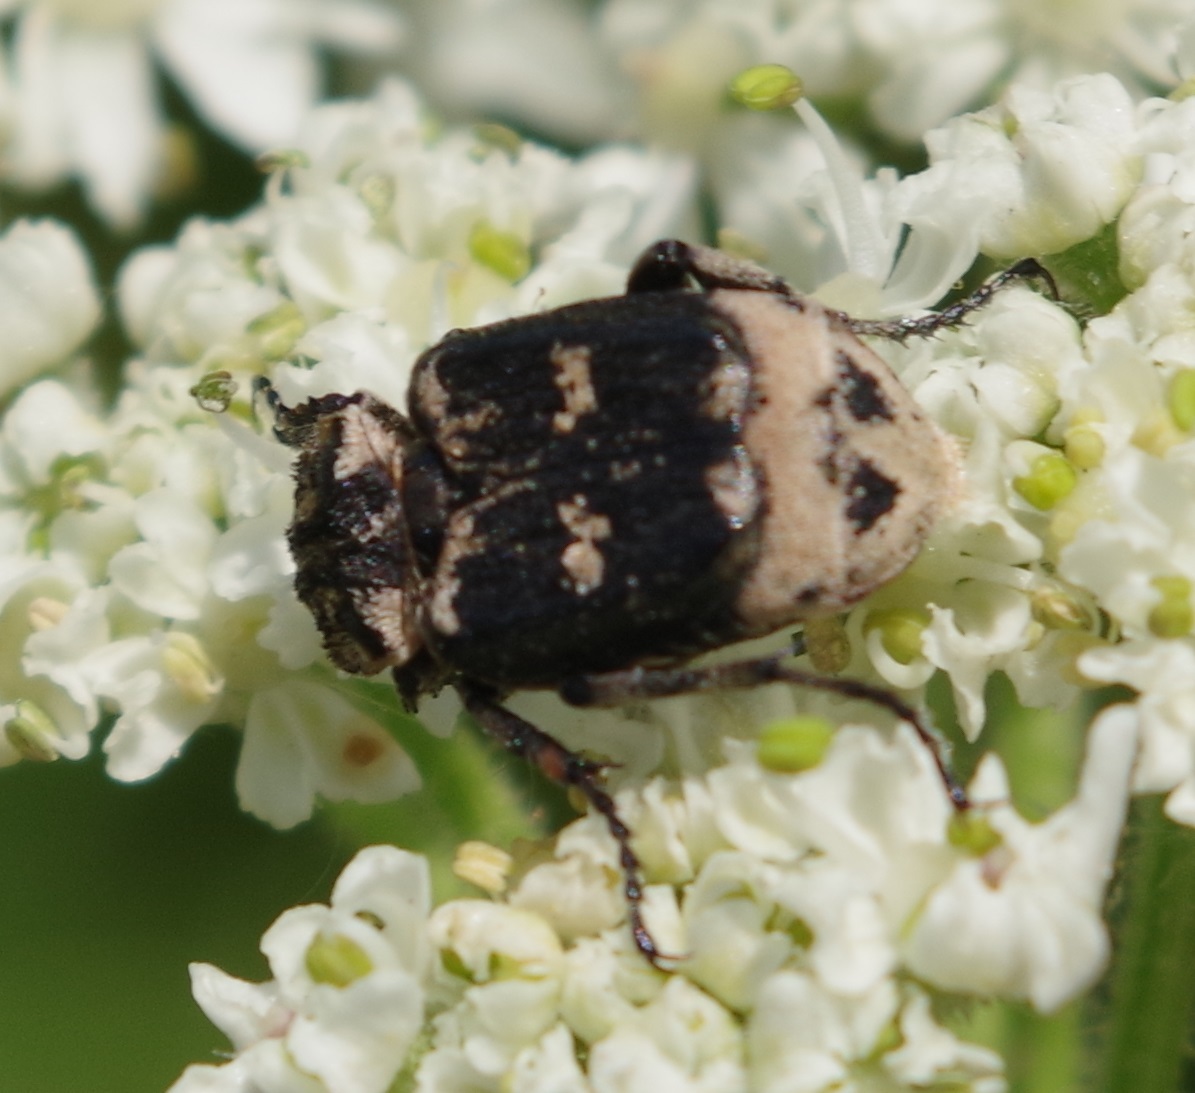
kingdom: Animalia
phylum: Arthropoda
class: Insecta
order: Coleoptera
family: Scarabaeidae
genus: Valgus
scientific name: Valgus hemipterus
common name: Bug flower chafer
